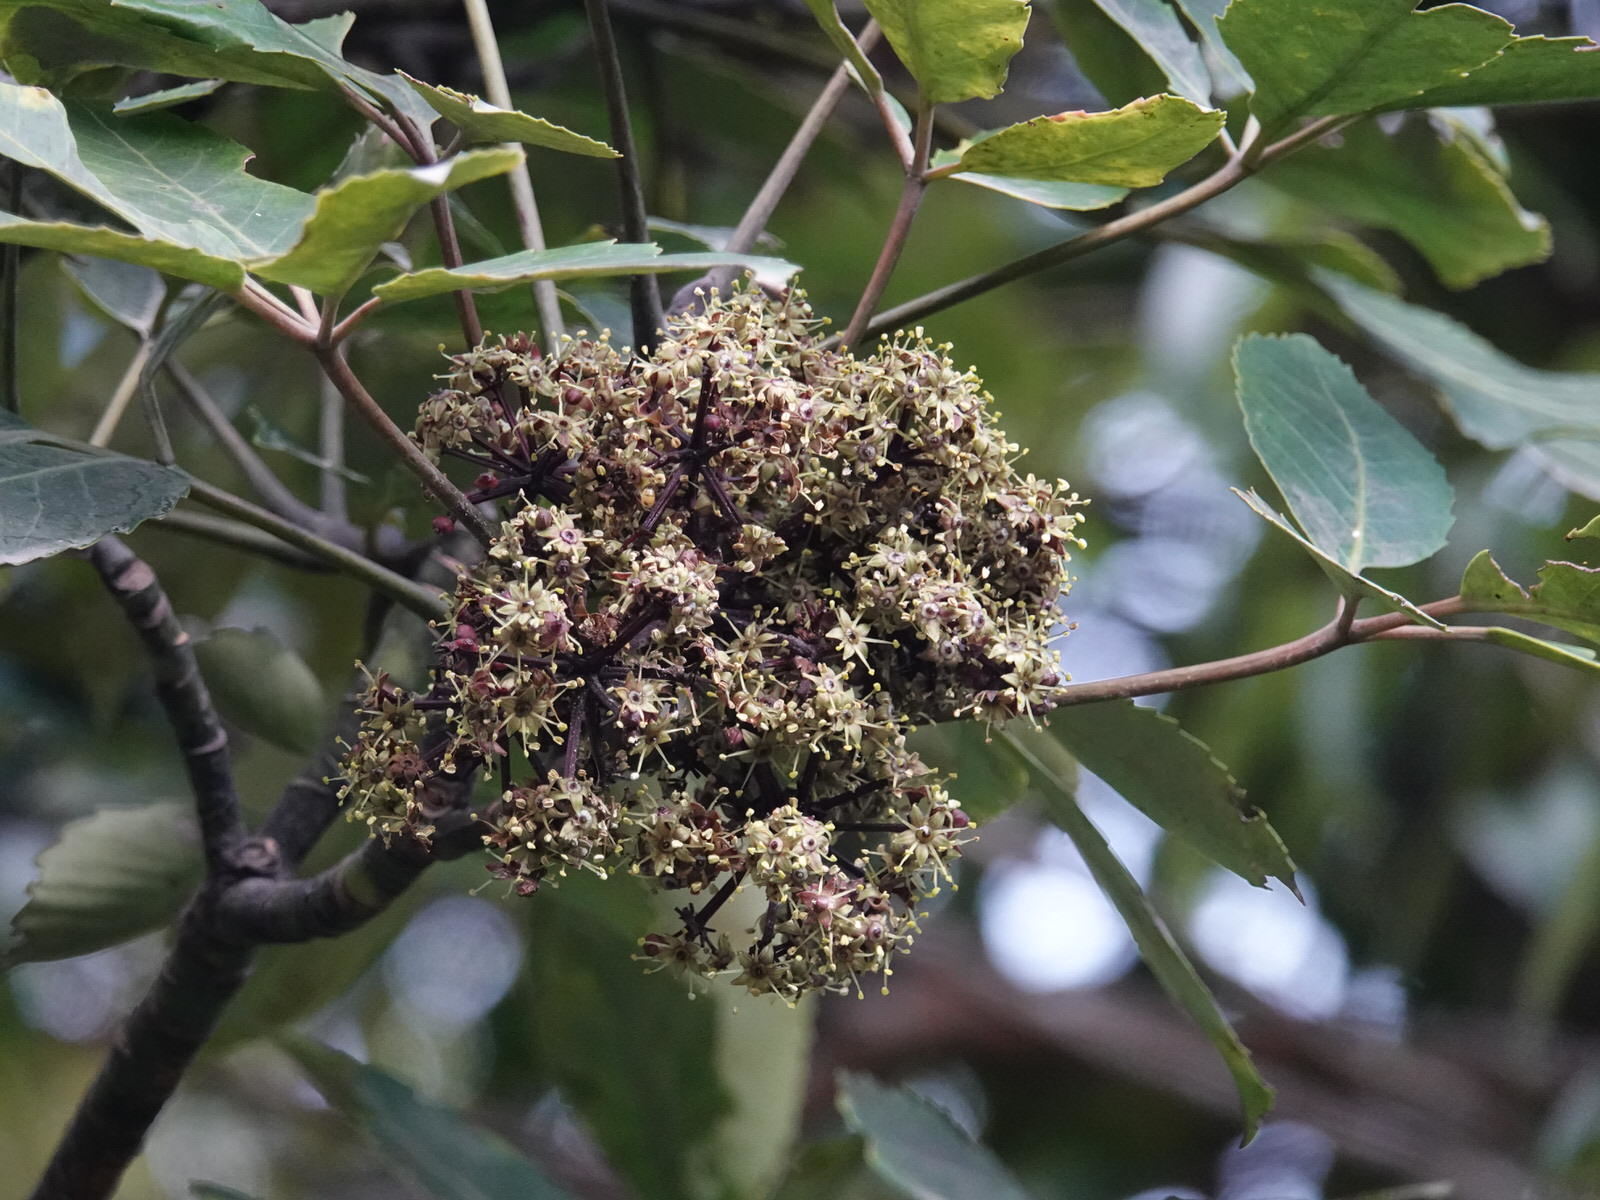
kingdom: Plantae
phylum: Tracheophyta
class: Magnoliopsida
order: Apiales
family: Araliaceae
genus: Neopanax
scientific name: Neopanax arboreus
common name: Five-fingers
